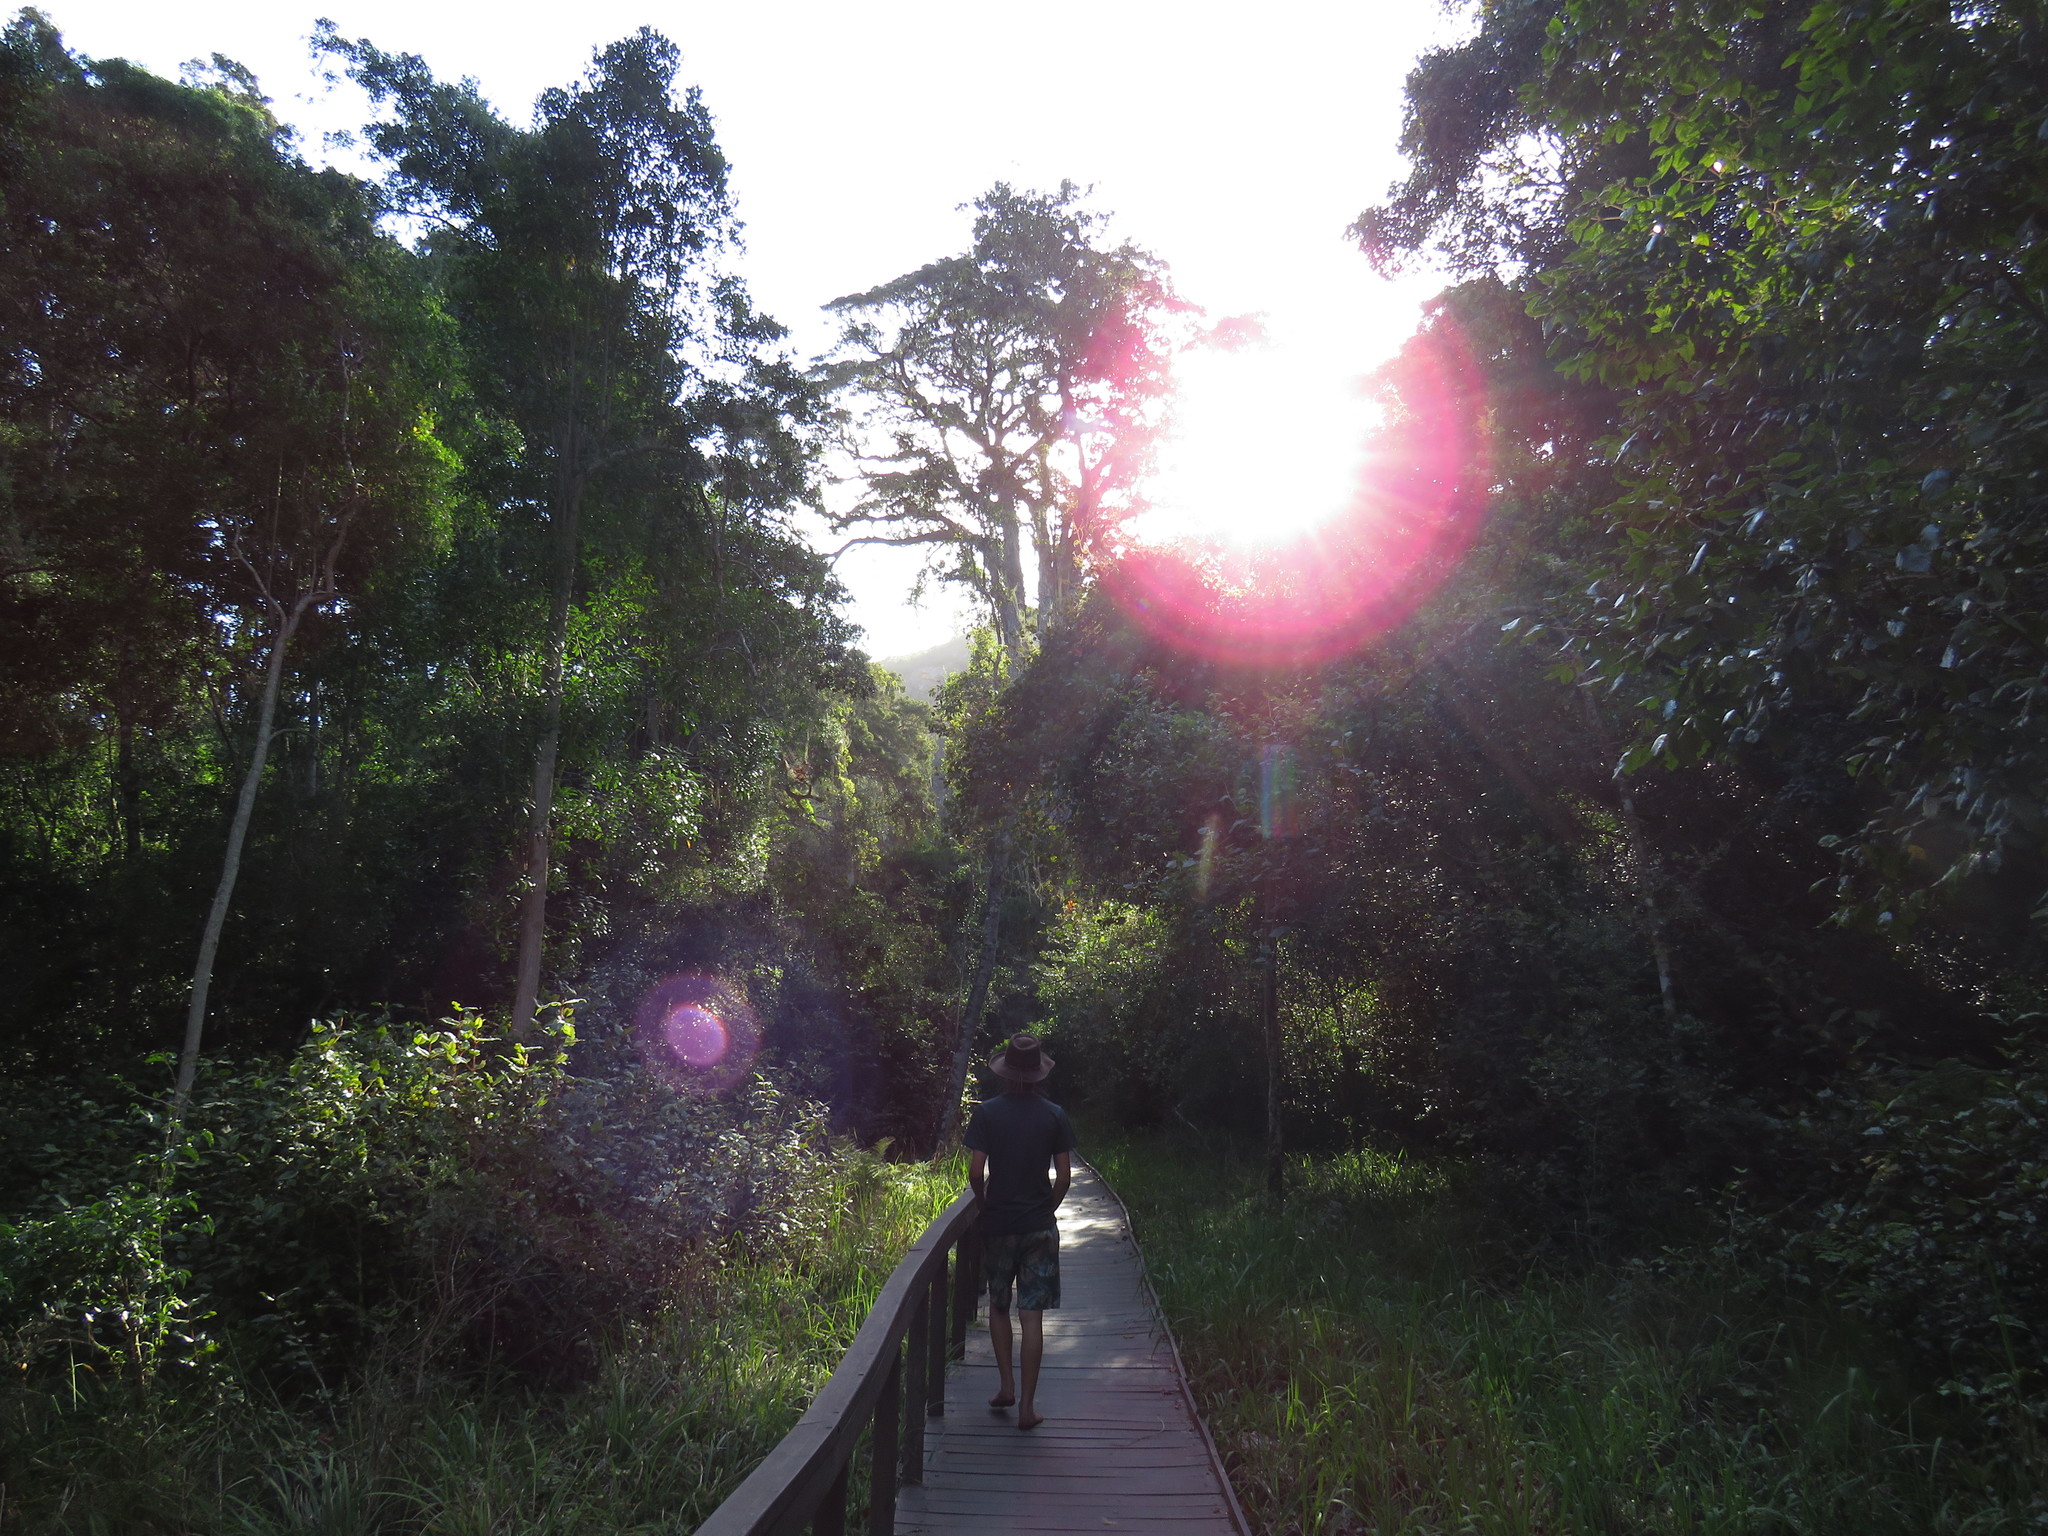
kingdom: Plantae
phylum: Tracheophyta
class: Pinopsida
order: Pinales
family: Podocarpaceae
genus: Afrocarpus
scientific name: Afrocarpus falcatus
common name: Bastard yellowwood
